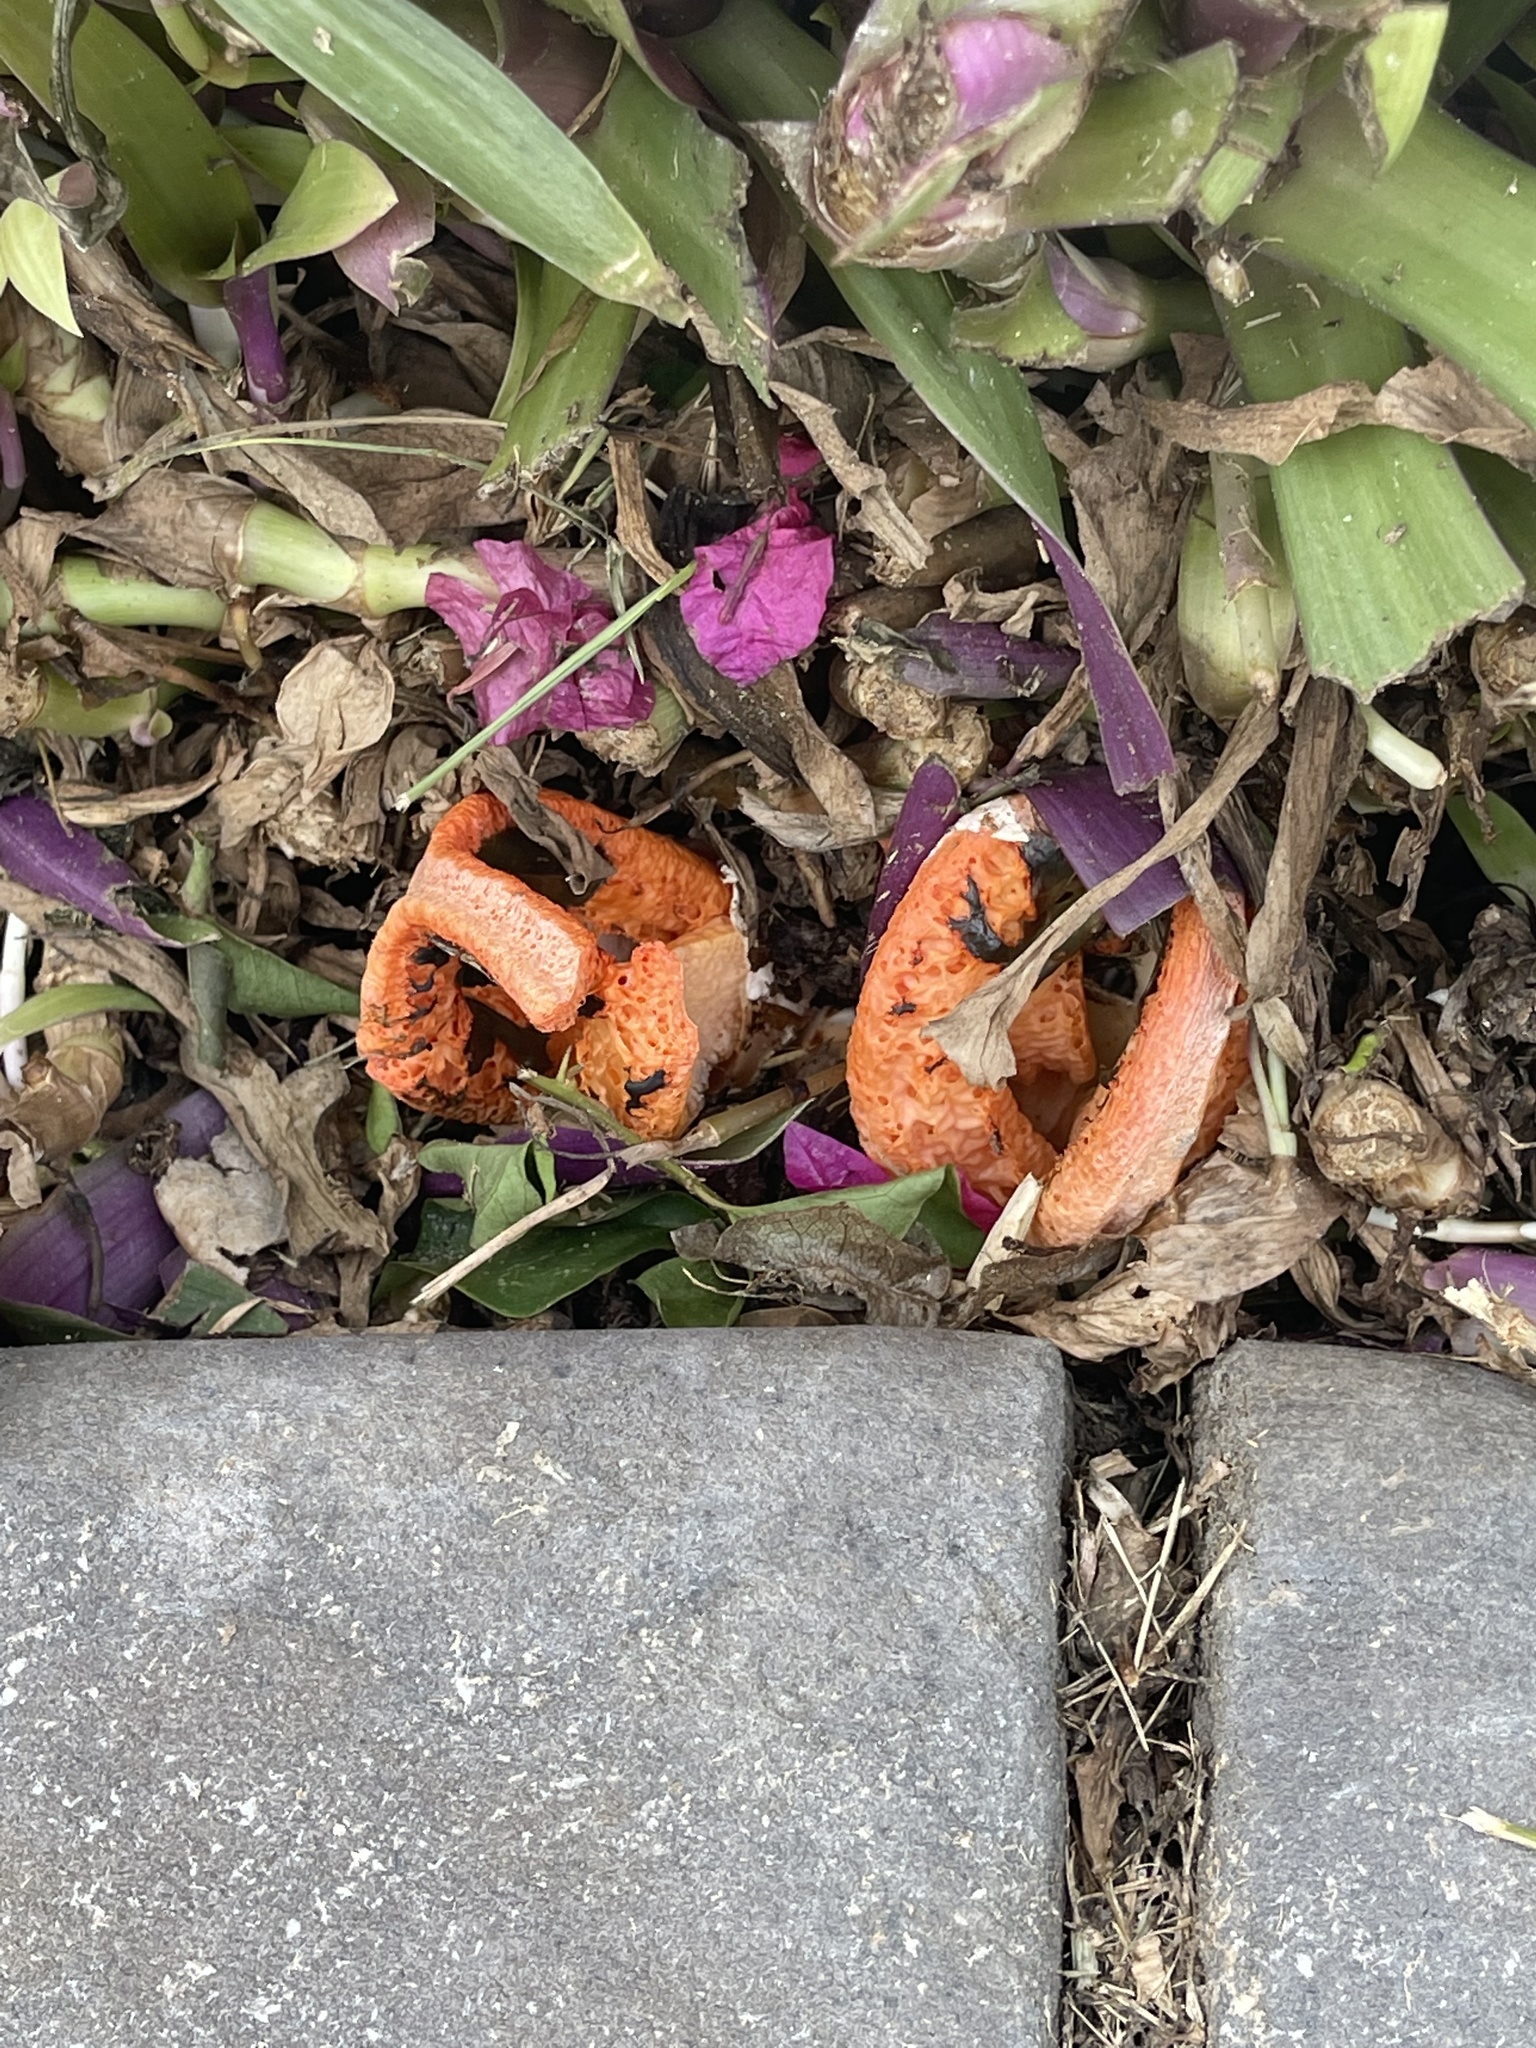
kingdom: Fungi
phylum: Basidiomycota
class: Agaricomycetes
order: Phallales
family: Phallaceae
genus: Clathrus
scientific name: Clathrus columnatus
